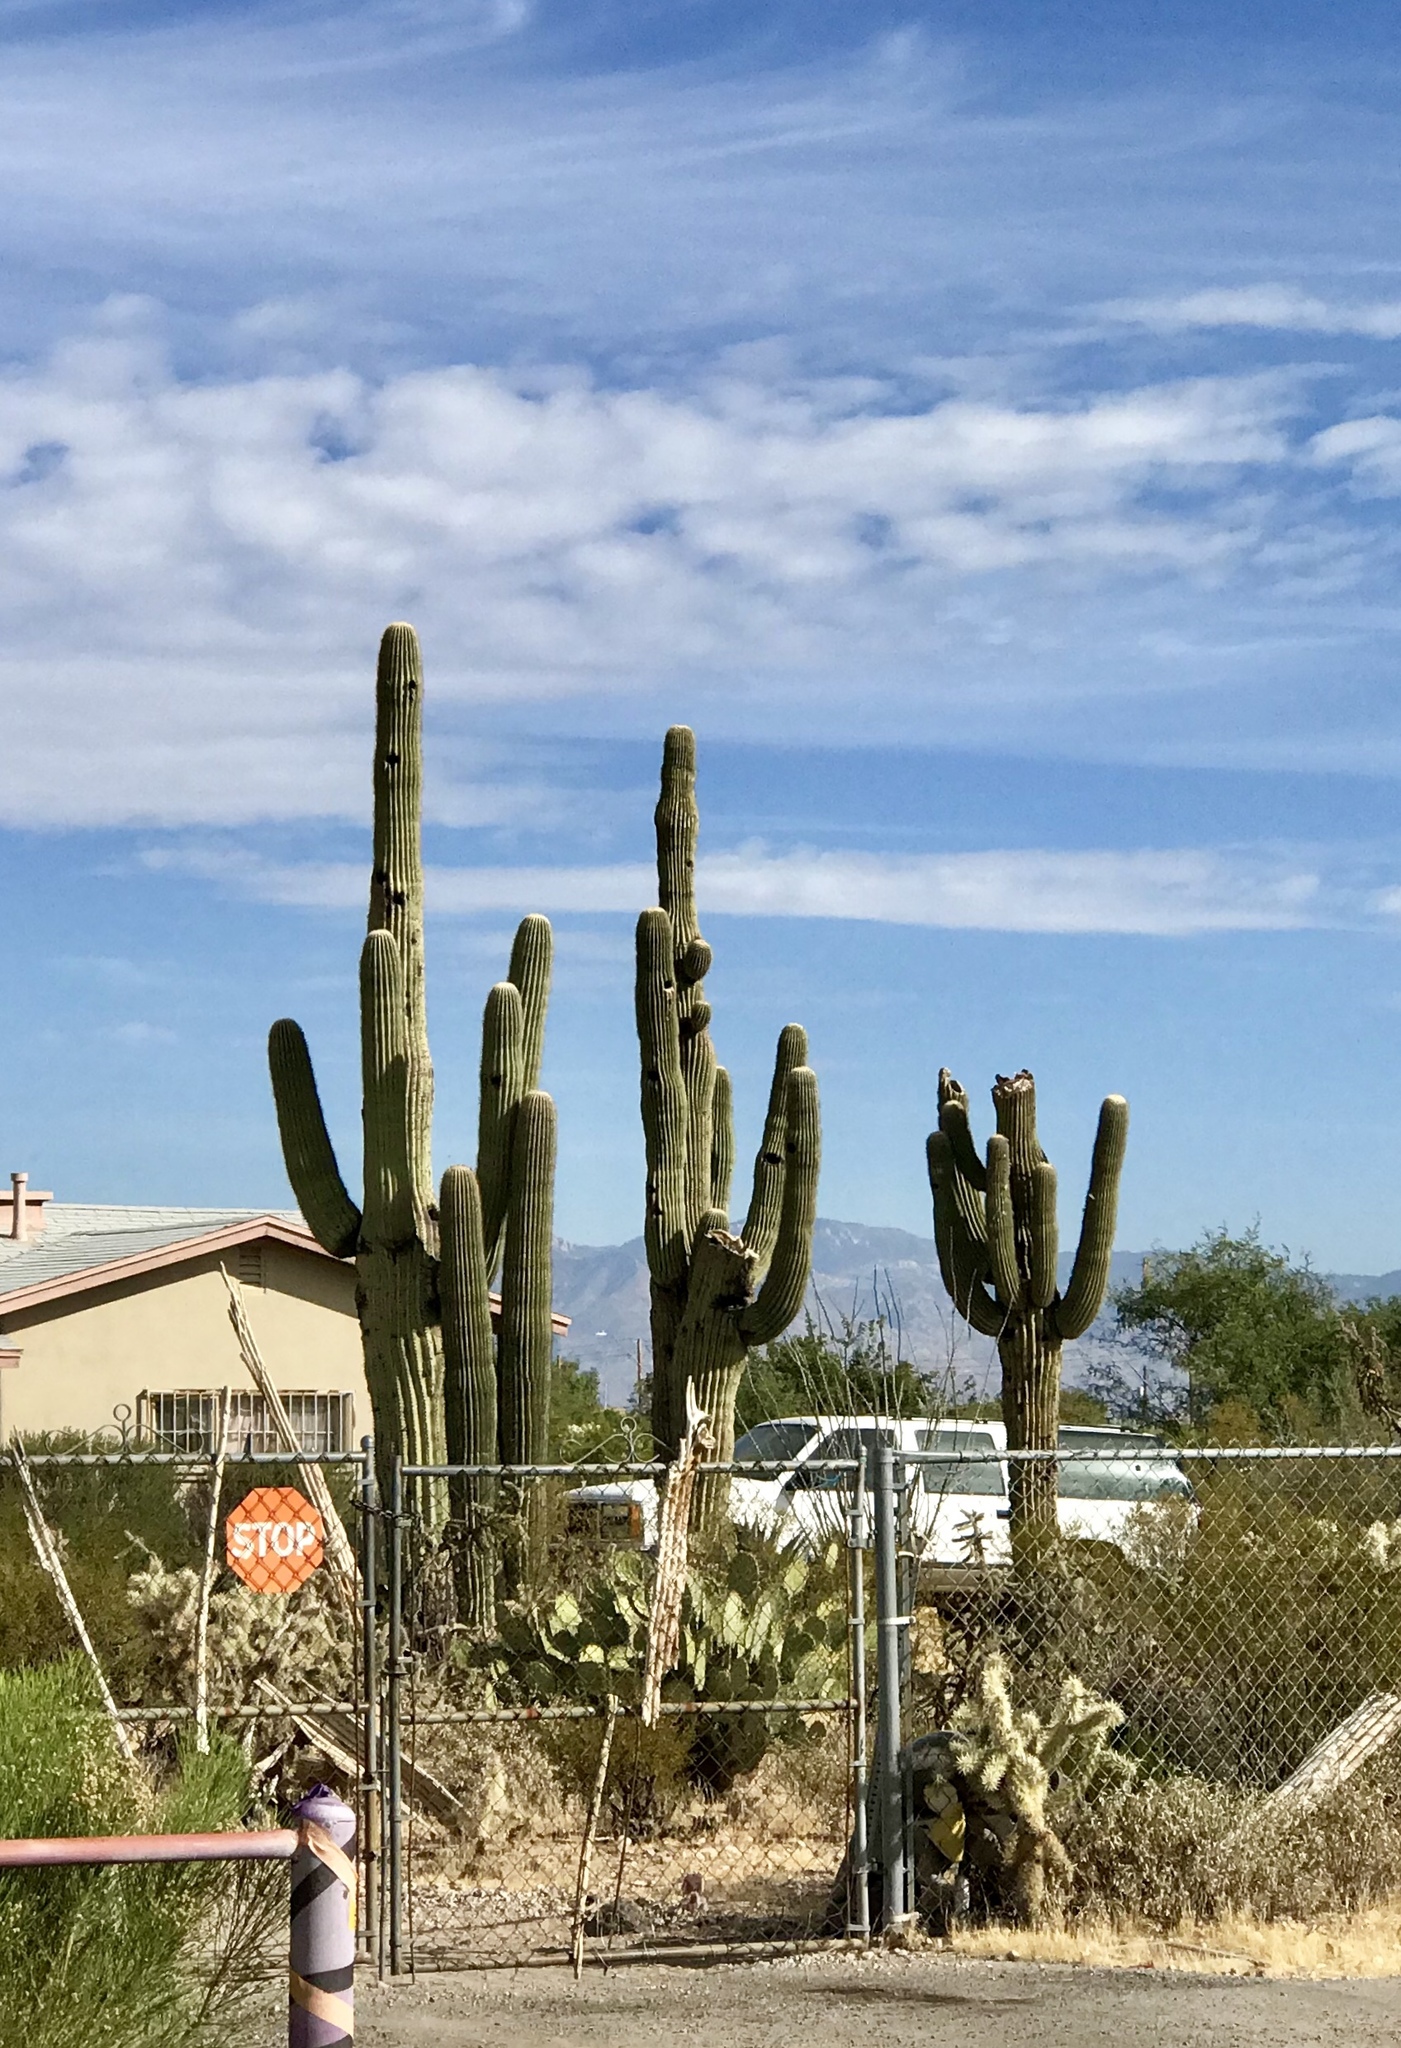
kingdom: Plantae
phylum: Tracheophyta
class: Magnoliopsida
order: Caryophyllales
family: Cactaceae
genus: Carnegiea
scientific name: Carnegiea gigantea
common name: Saguaro
